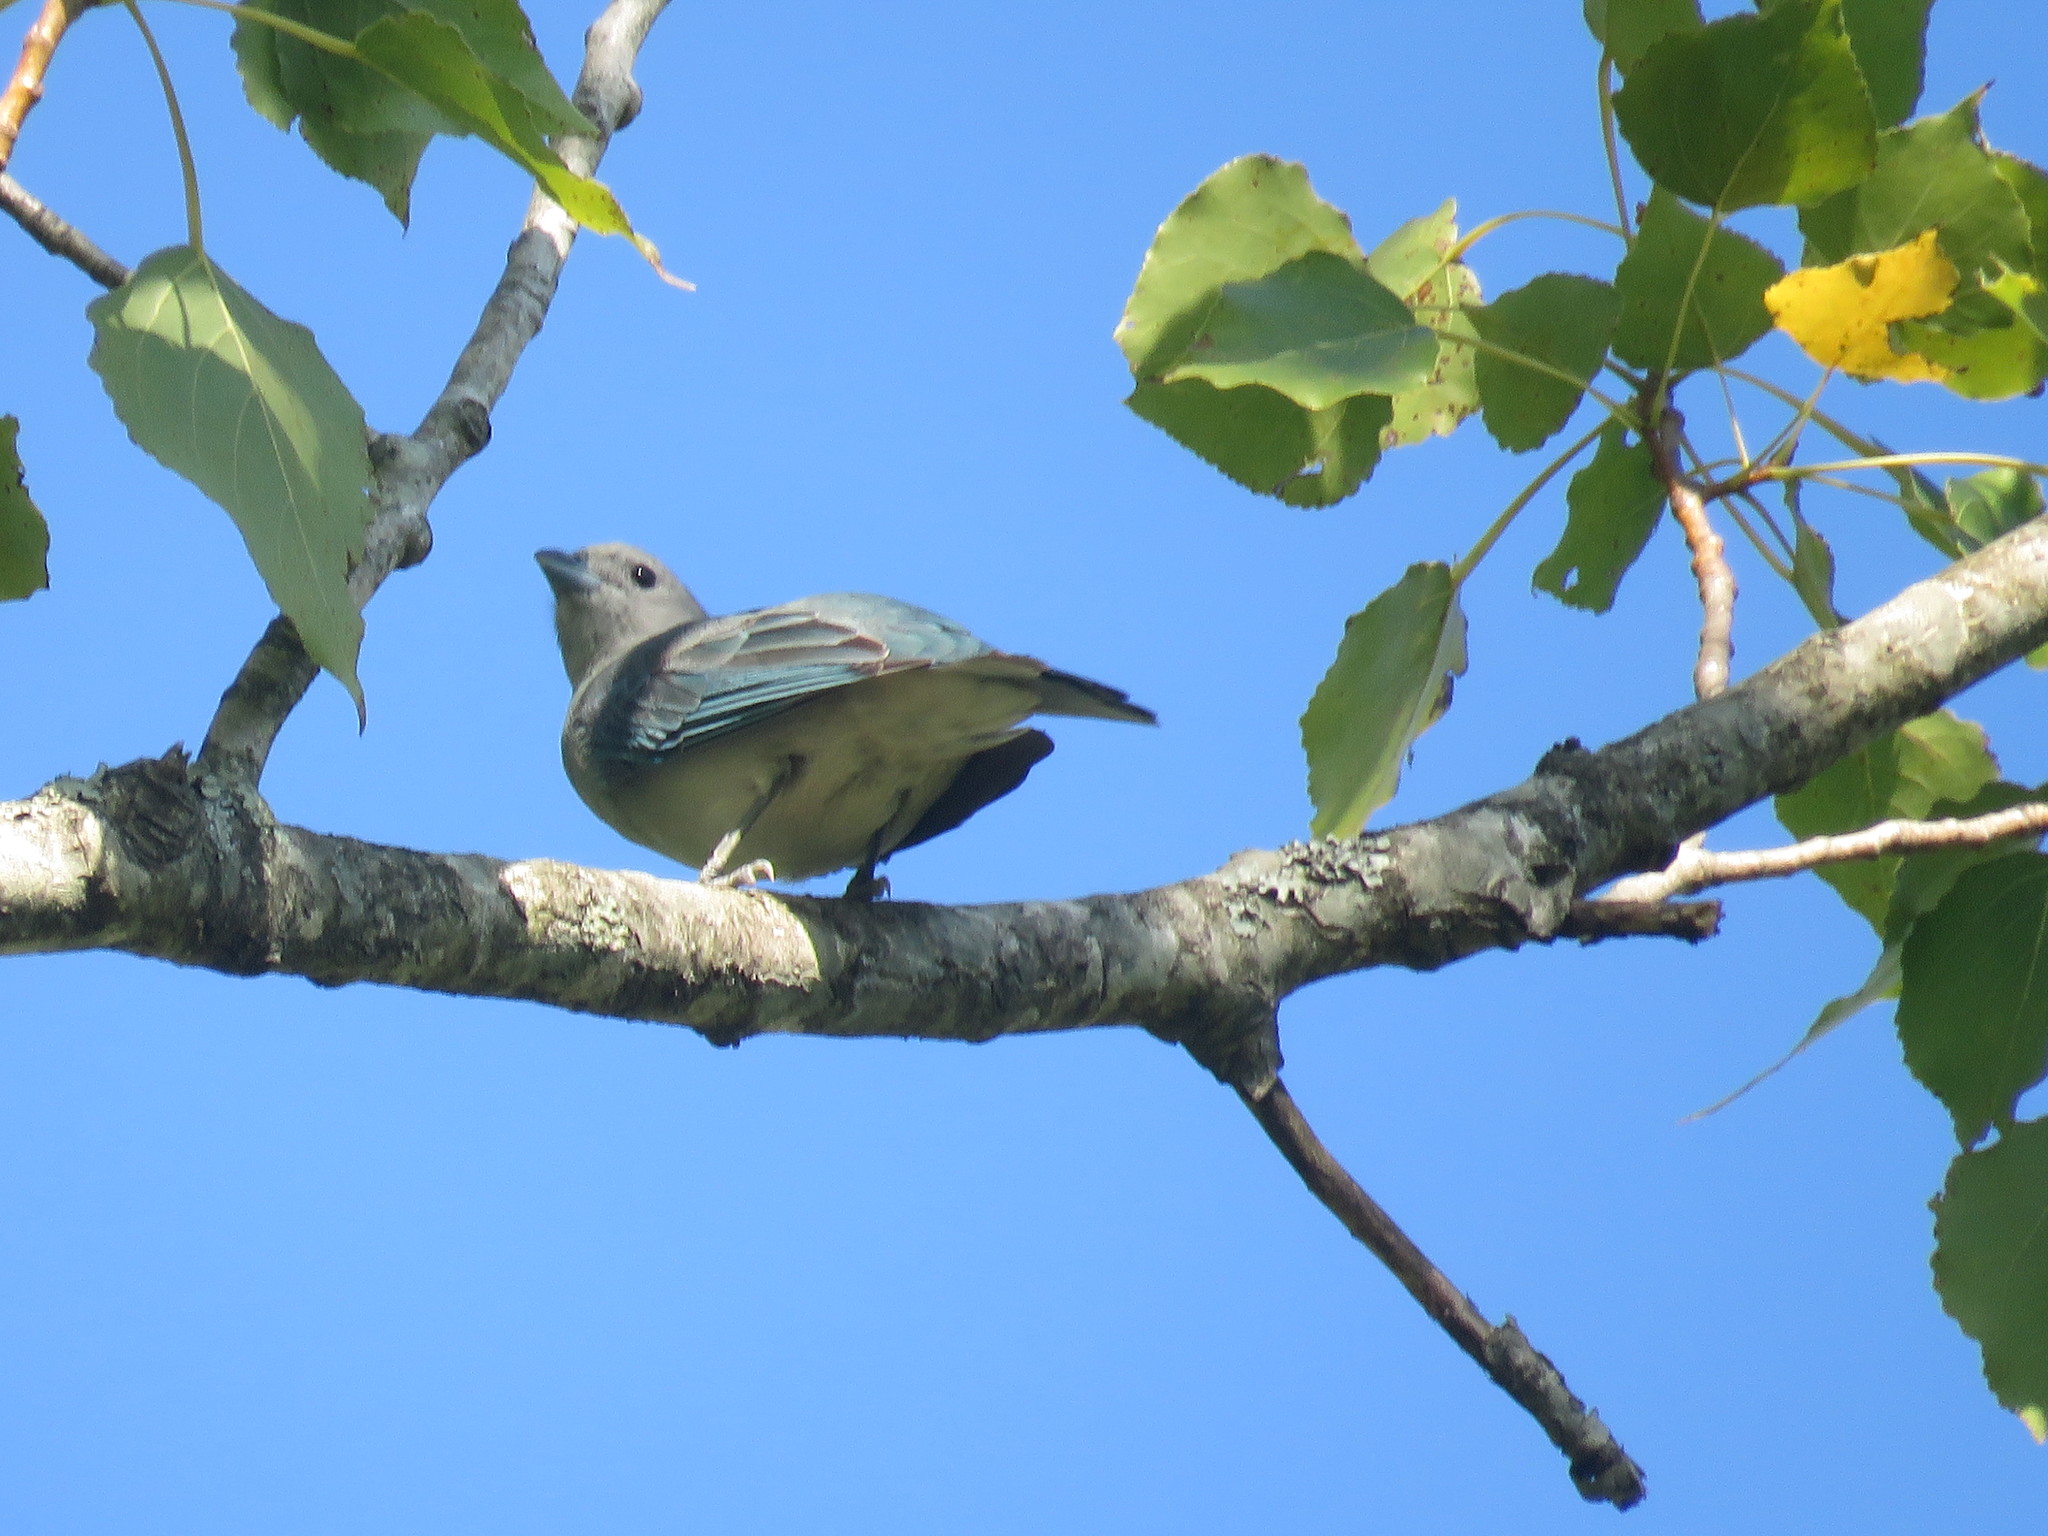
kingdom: Animalia
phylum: Chordata
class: Aves
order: Passeriformes
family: Thraupidae
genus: Thraupis
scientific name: Thraupis sayaca
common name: Sayaca tanager
